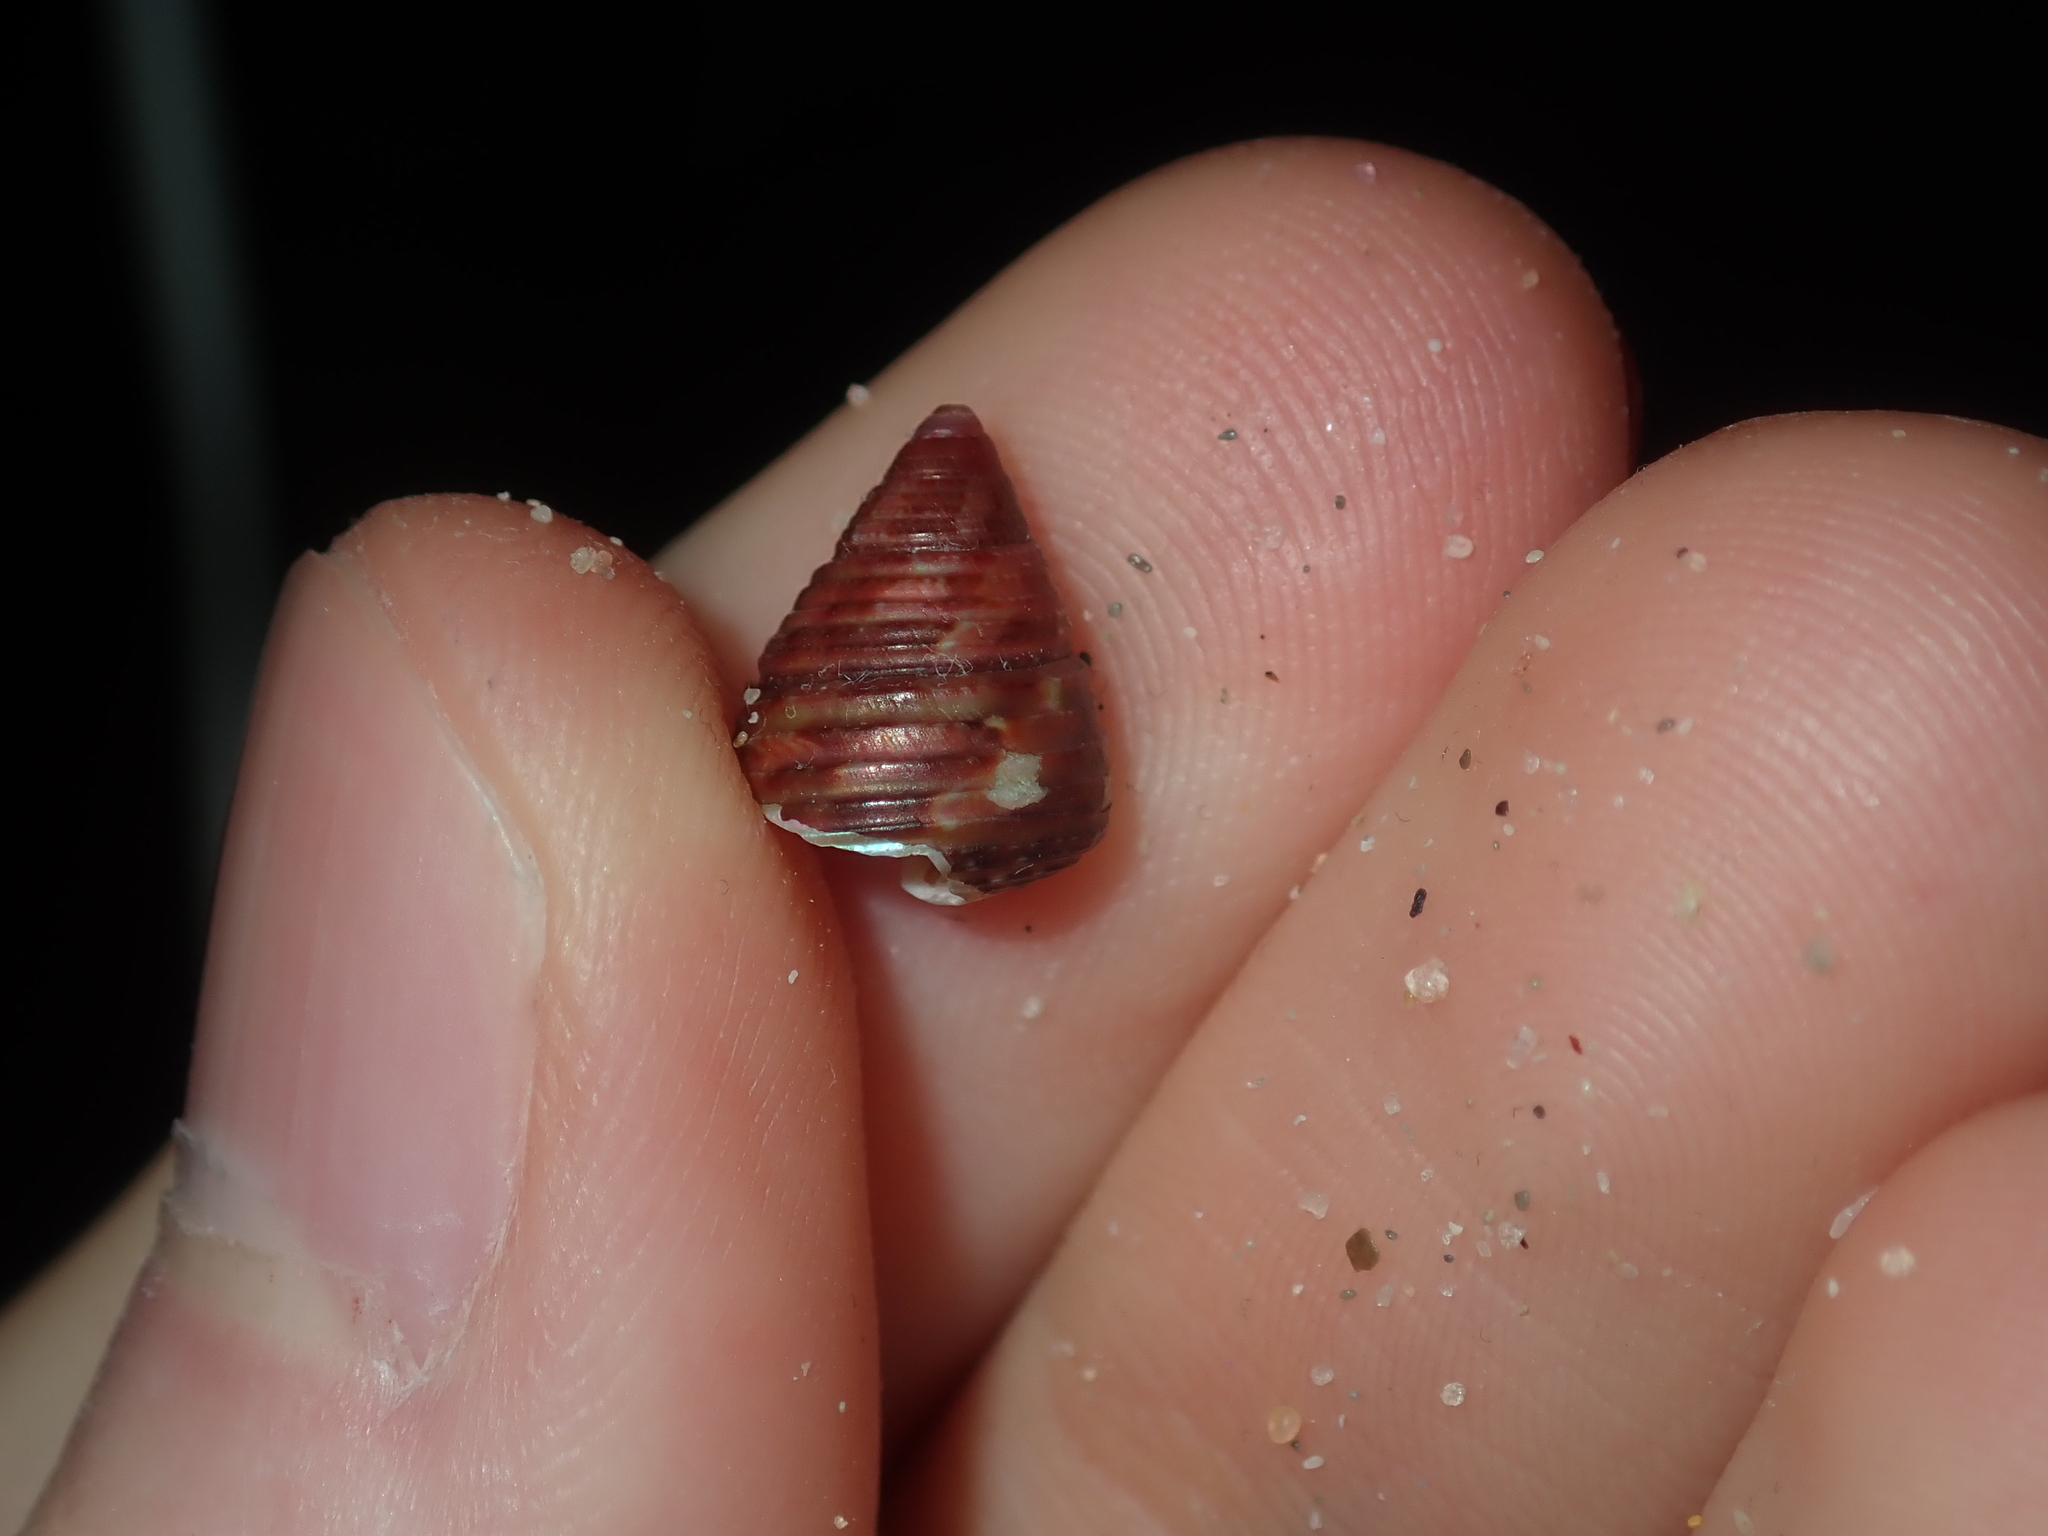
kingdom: Animalia
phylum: Mollusca
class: Gastropoda
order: Trochida
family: Trochidae
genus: Prothalotia
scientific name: Prothalotia pulcherrima
